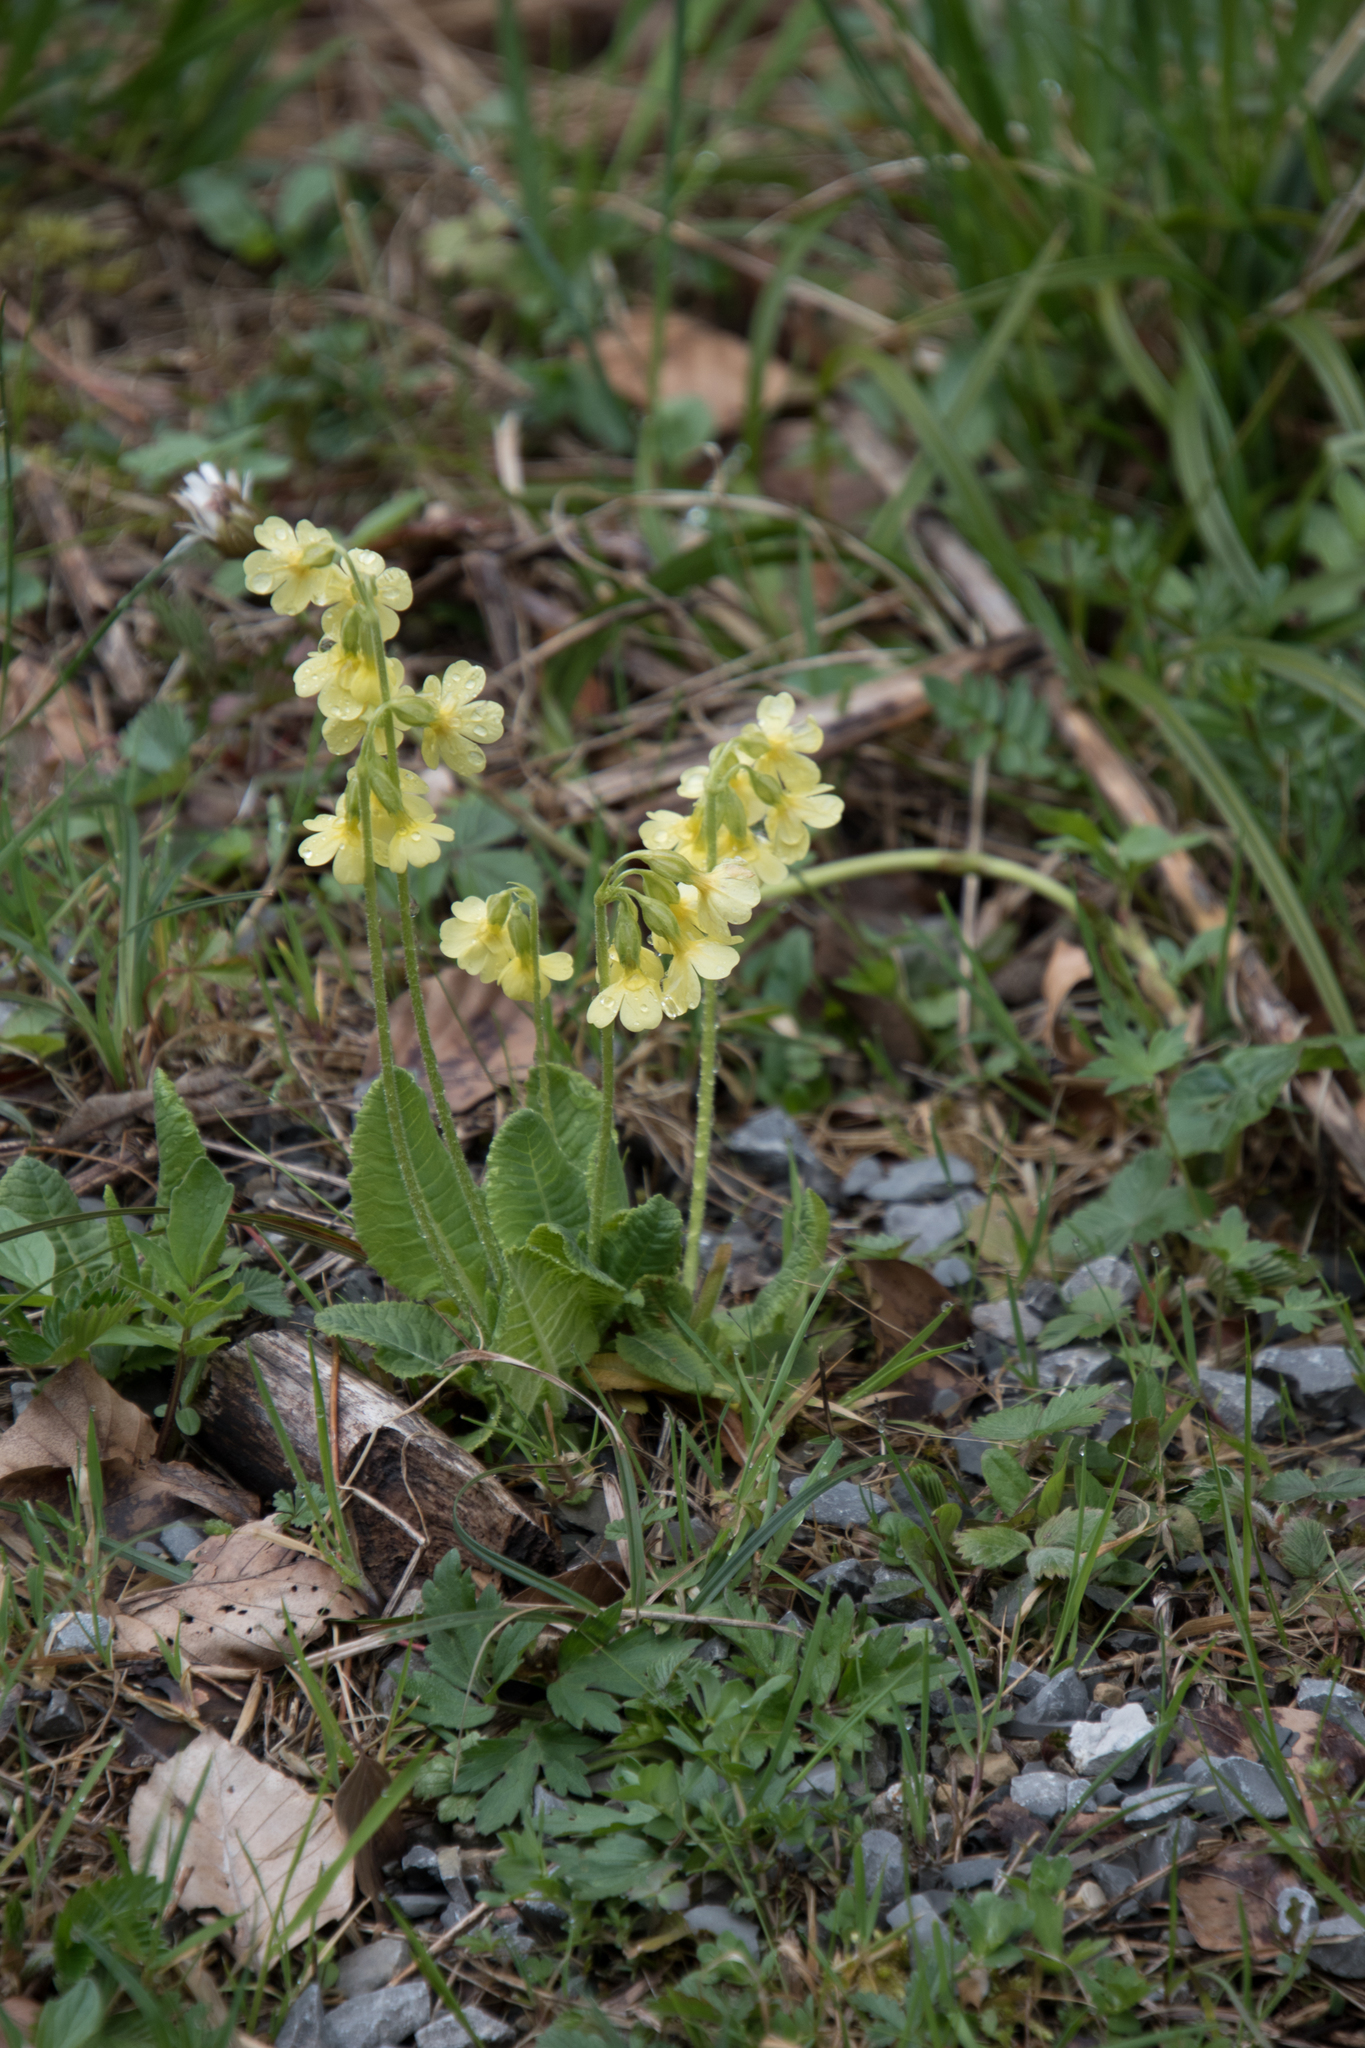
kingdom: Plantae
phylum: Tracheophyta
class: Magnoliopsida
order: Ericales
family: Primulaceae
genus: Primula
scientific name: Primula elatior
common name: Oxlip
